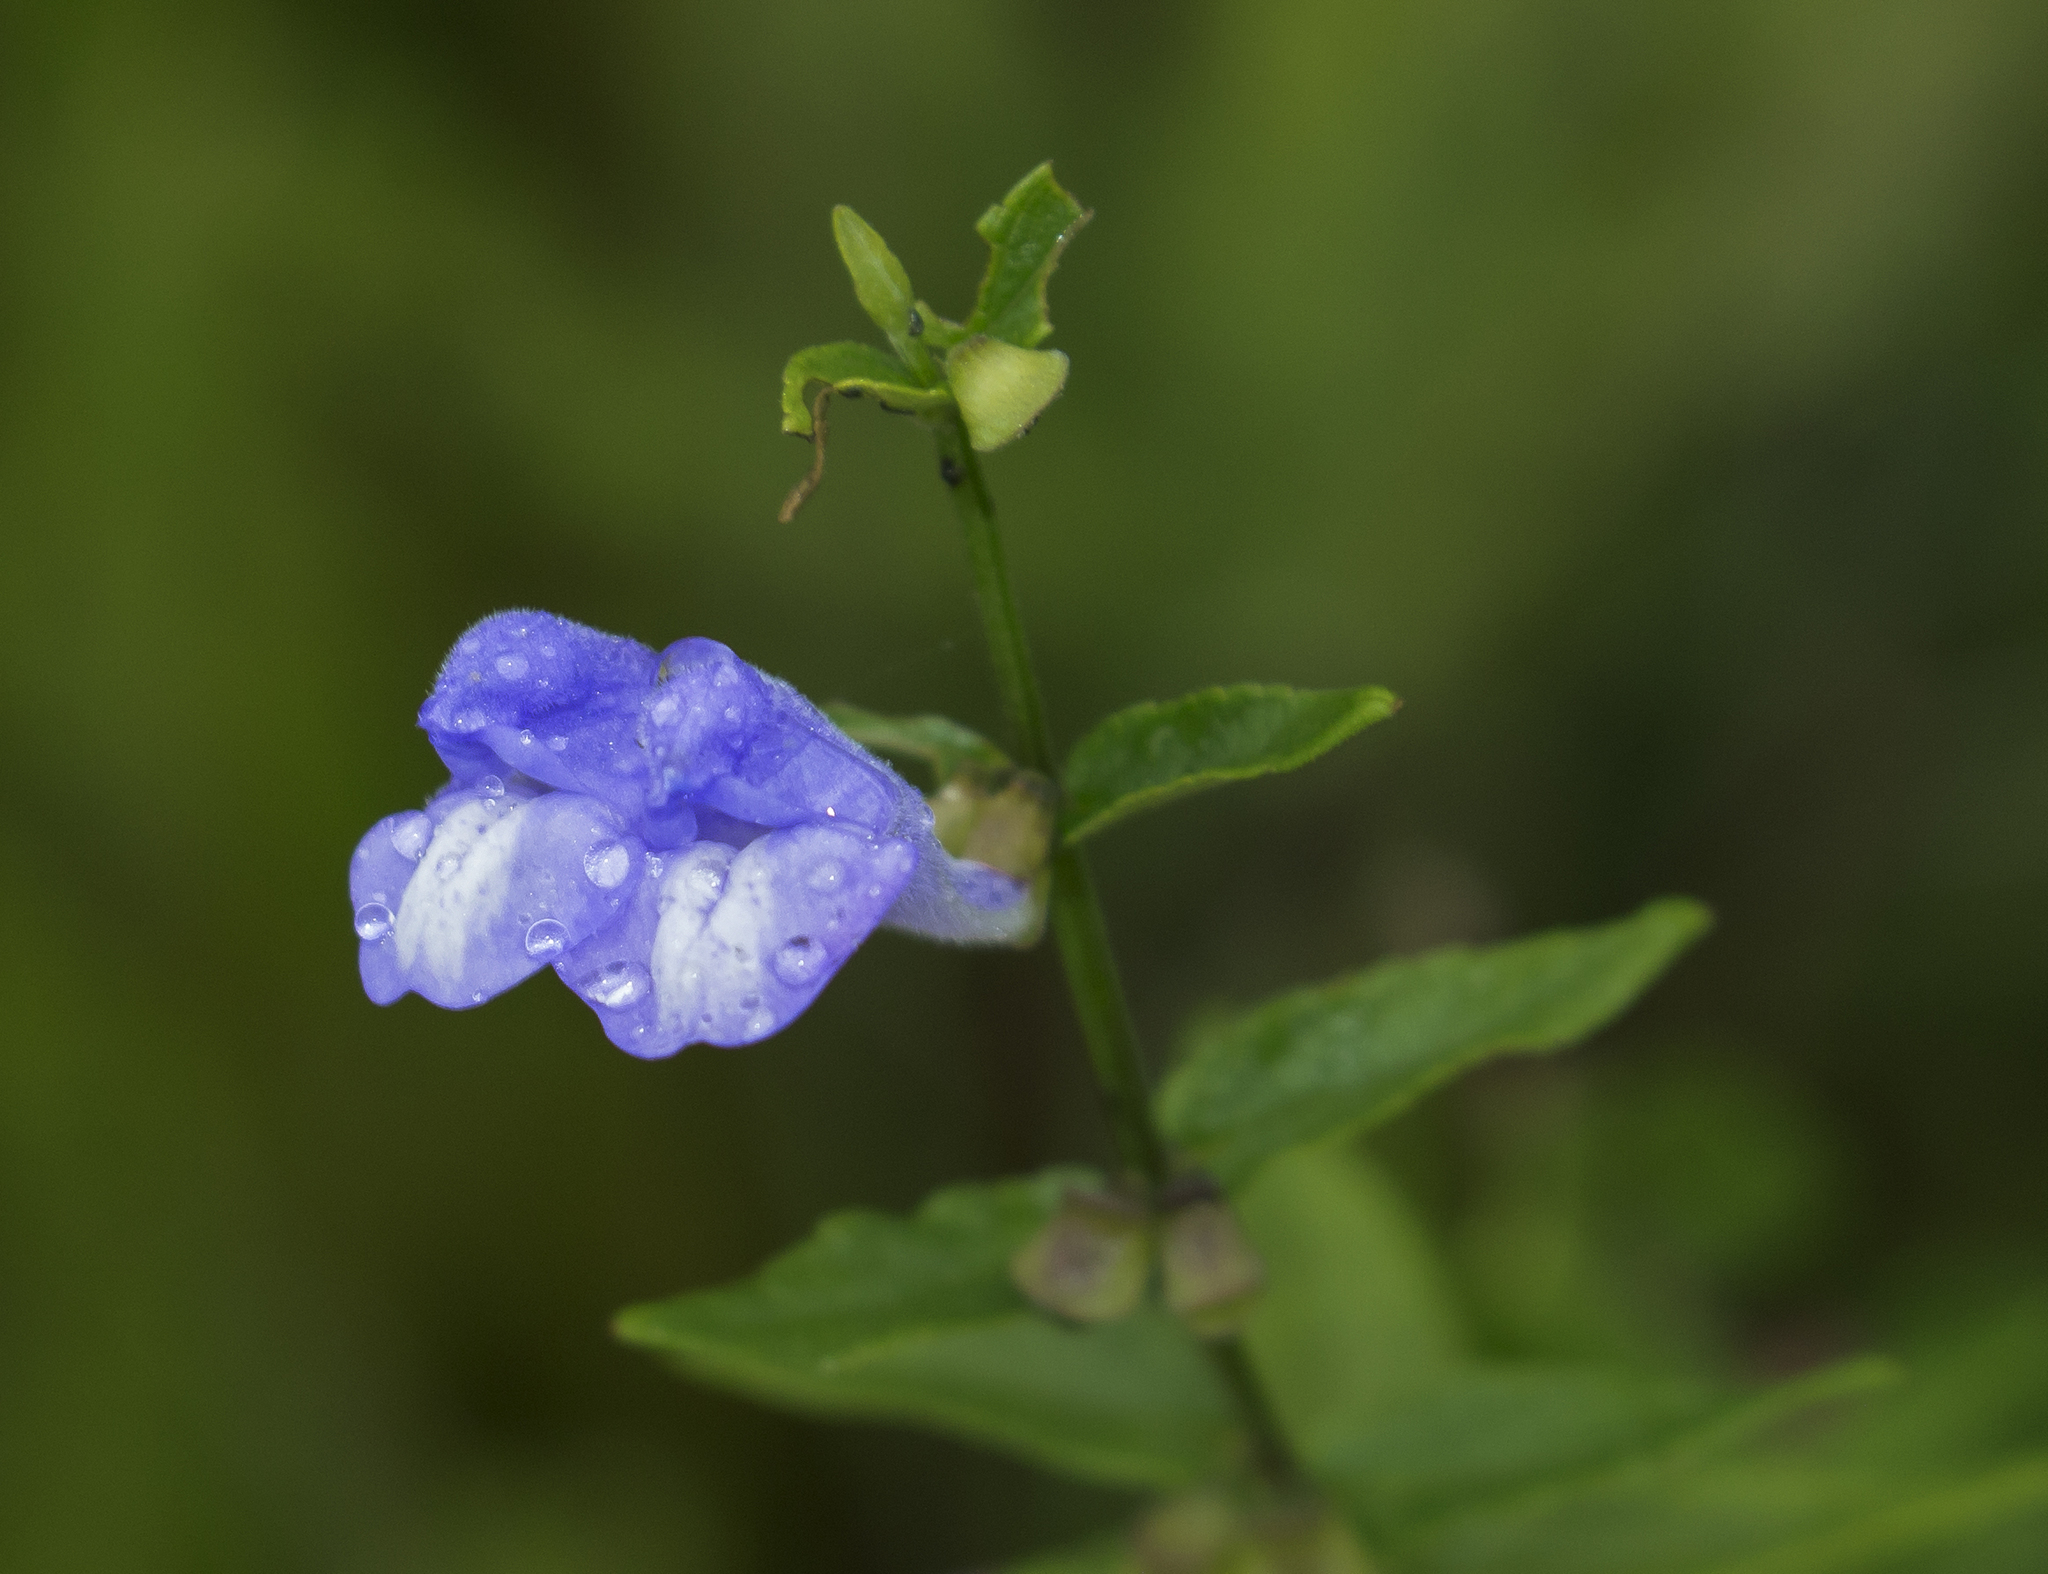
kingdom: Plantae
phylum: Tracheophyta
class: Magnoliopsida
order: Lamiales
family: Lamiaceae
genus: Scutellaria
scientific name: Scutellaria galericulata
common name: Skullcap
